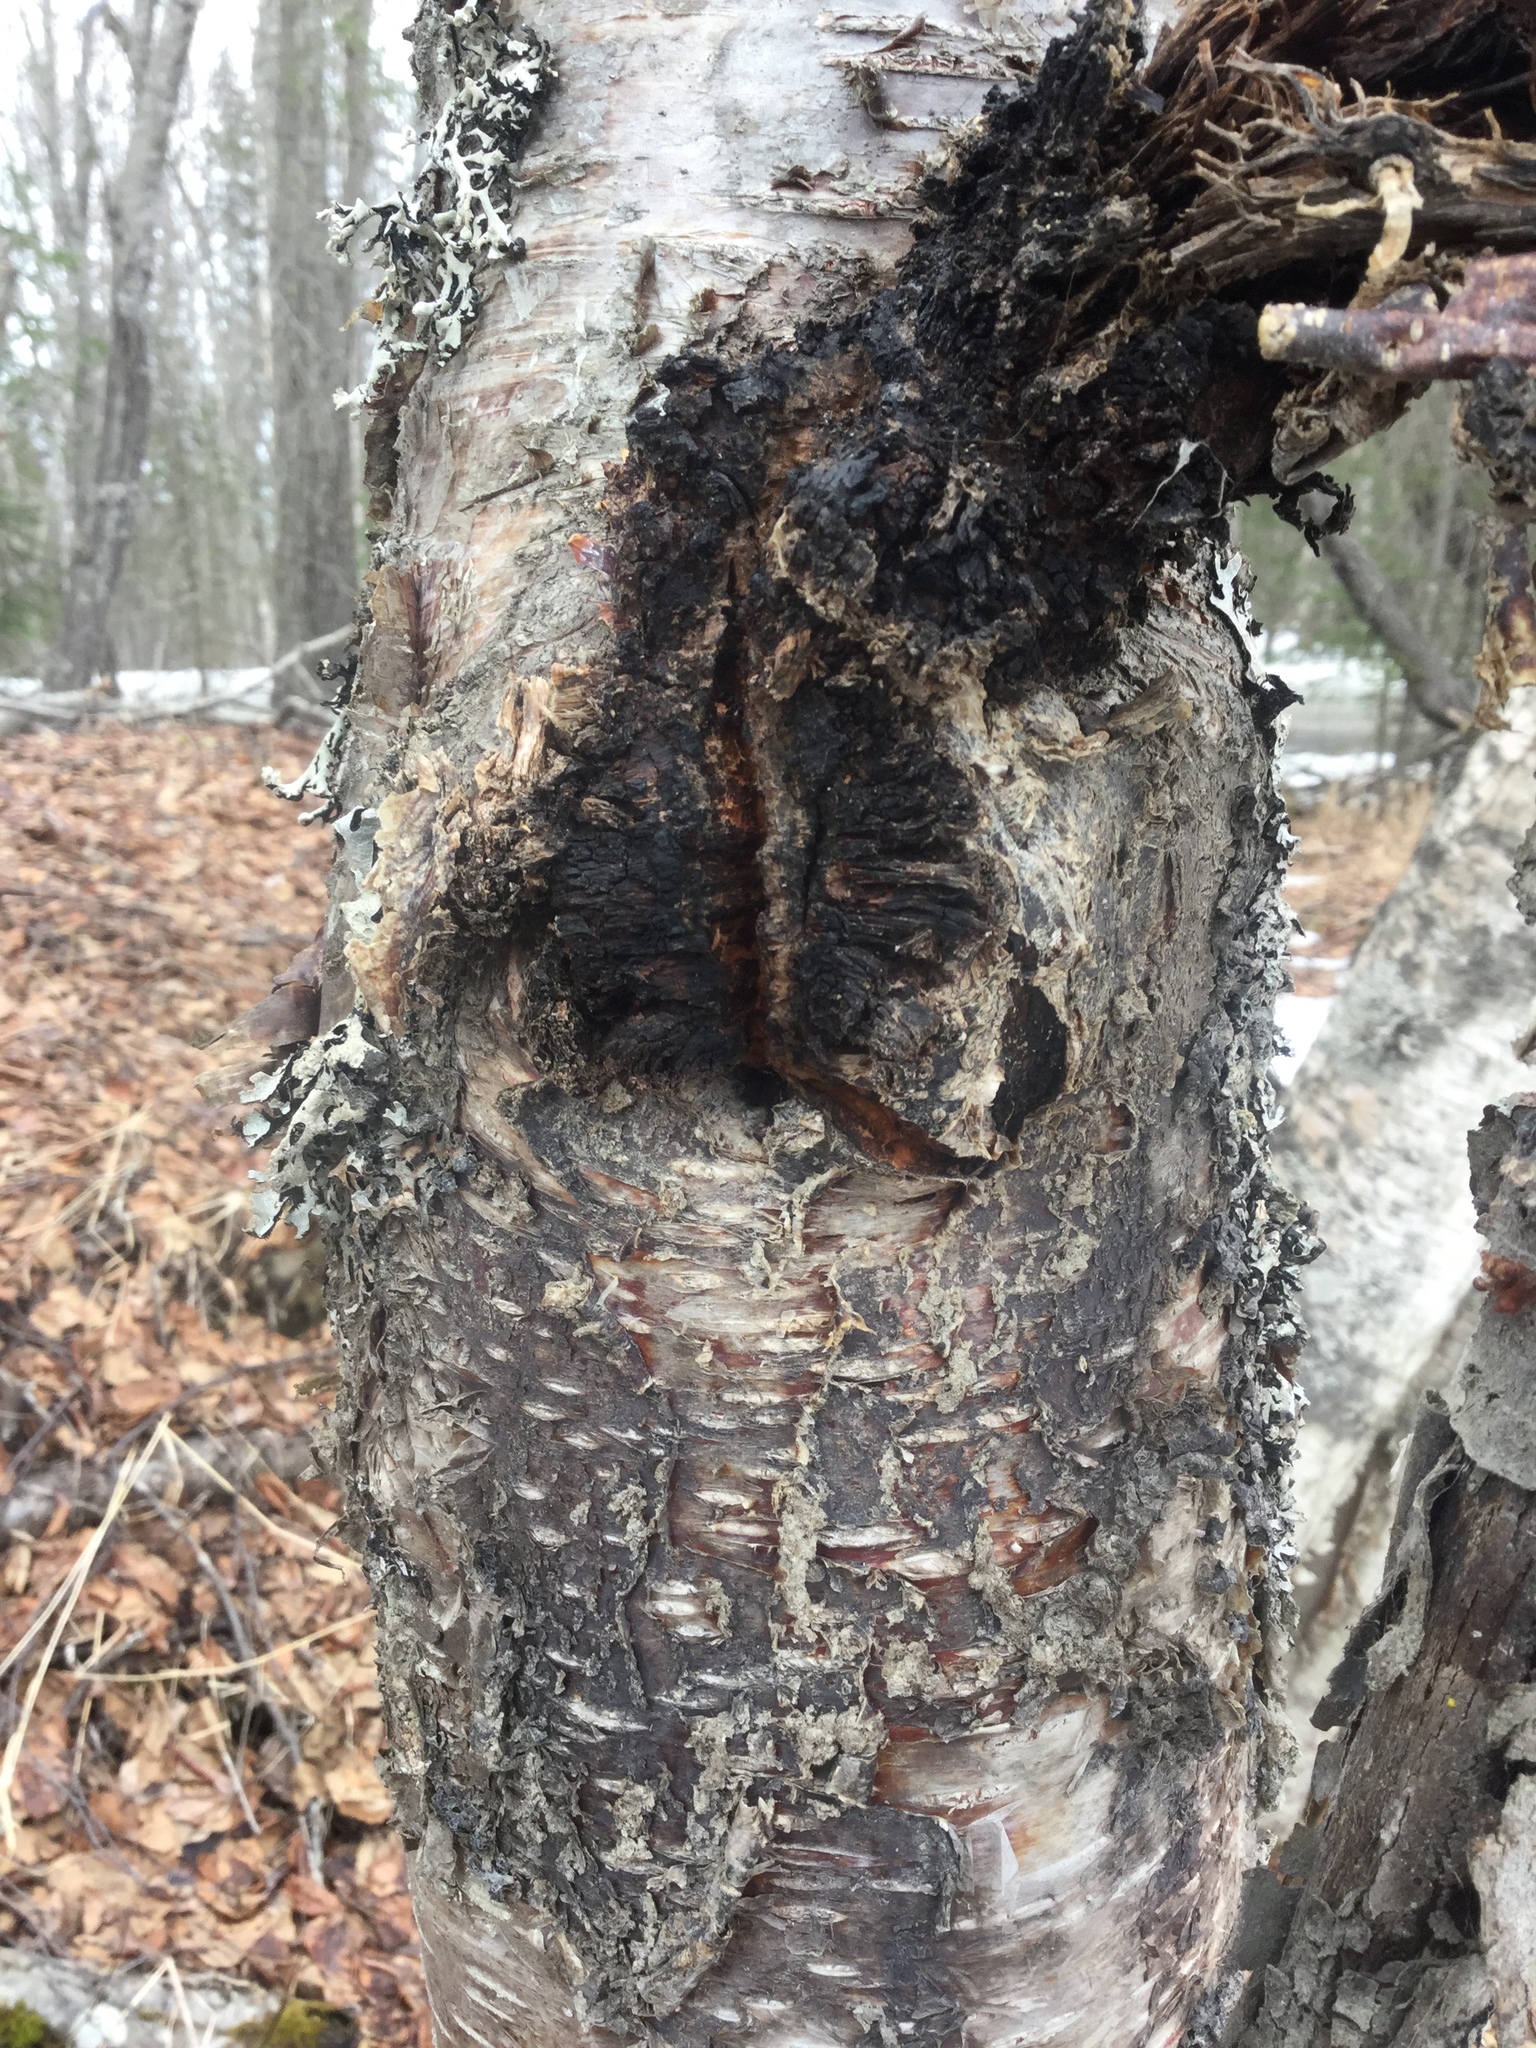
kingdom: Fungi
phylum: Basidiomycota
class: Agaricomycetes
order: Hymenochaetales
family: Hymenochaetaceae
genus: Inonotus
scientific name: Inonotus obliquus
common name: Chaga
